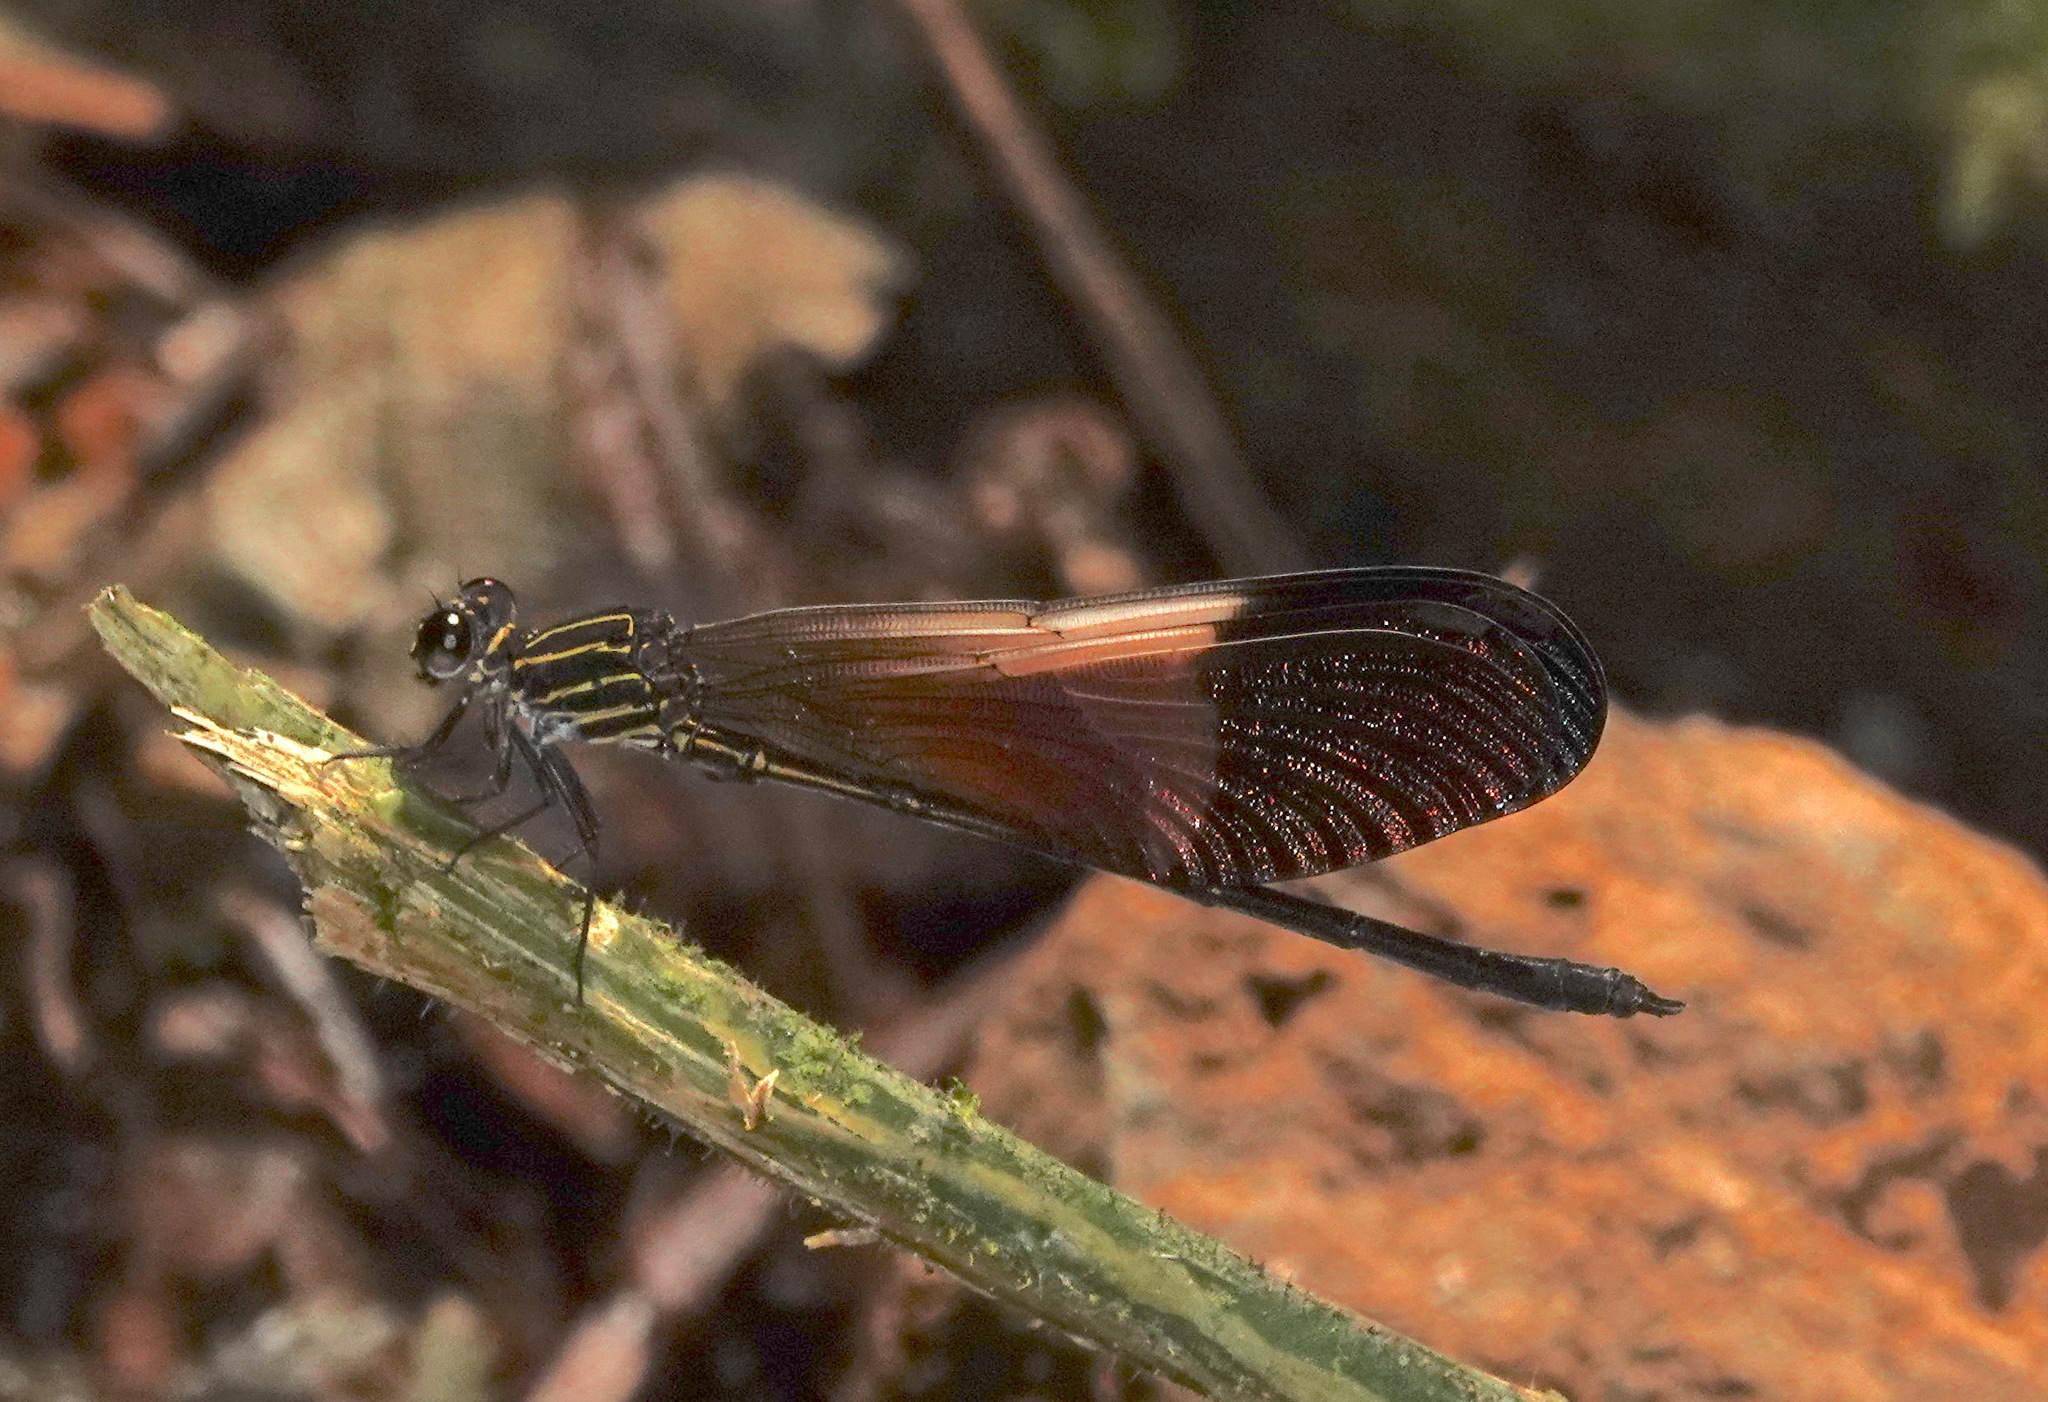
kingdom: Animalia
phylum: Arthropoda
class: Insecta
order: Odonata
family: Polythoridae
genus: Polythore
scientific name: Polythore boliviana
